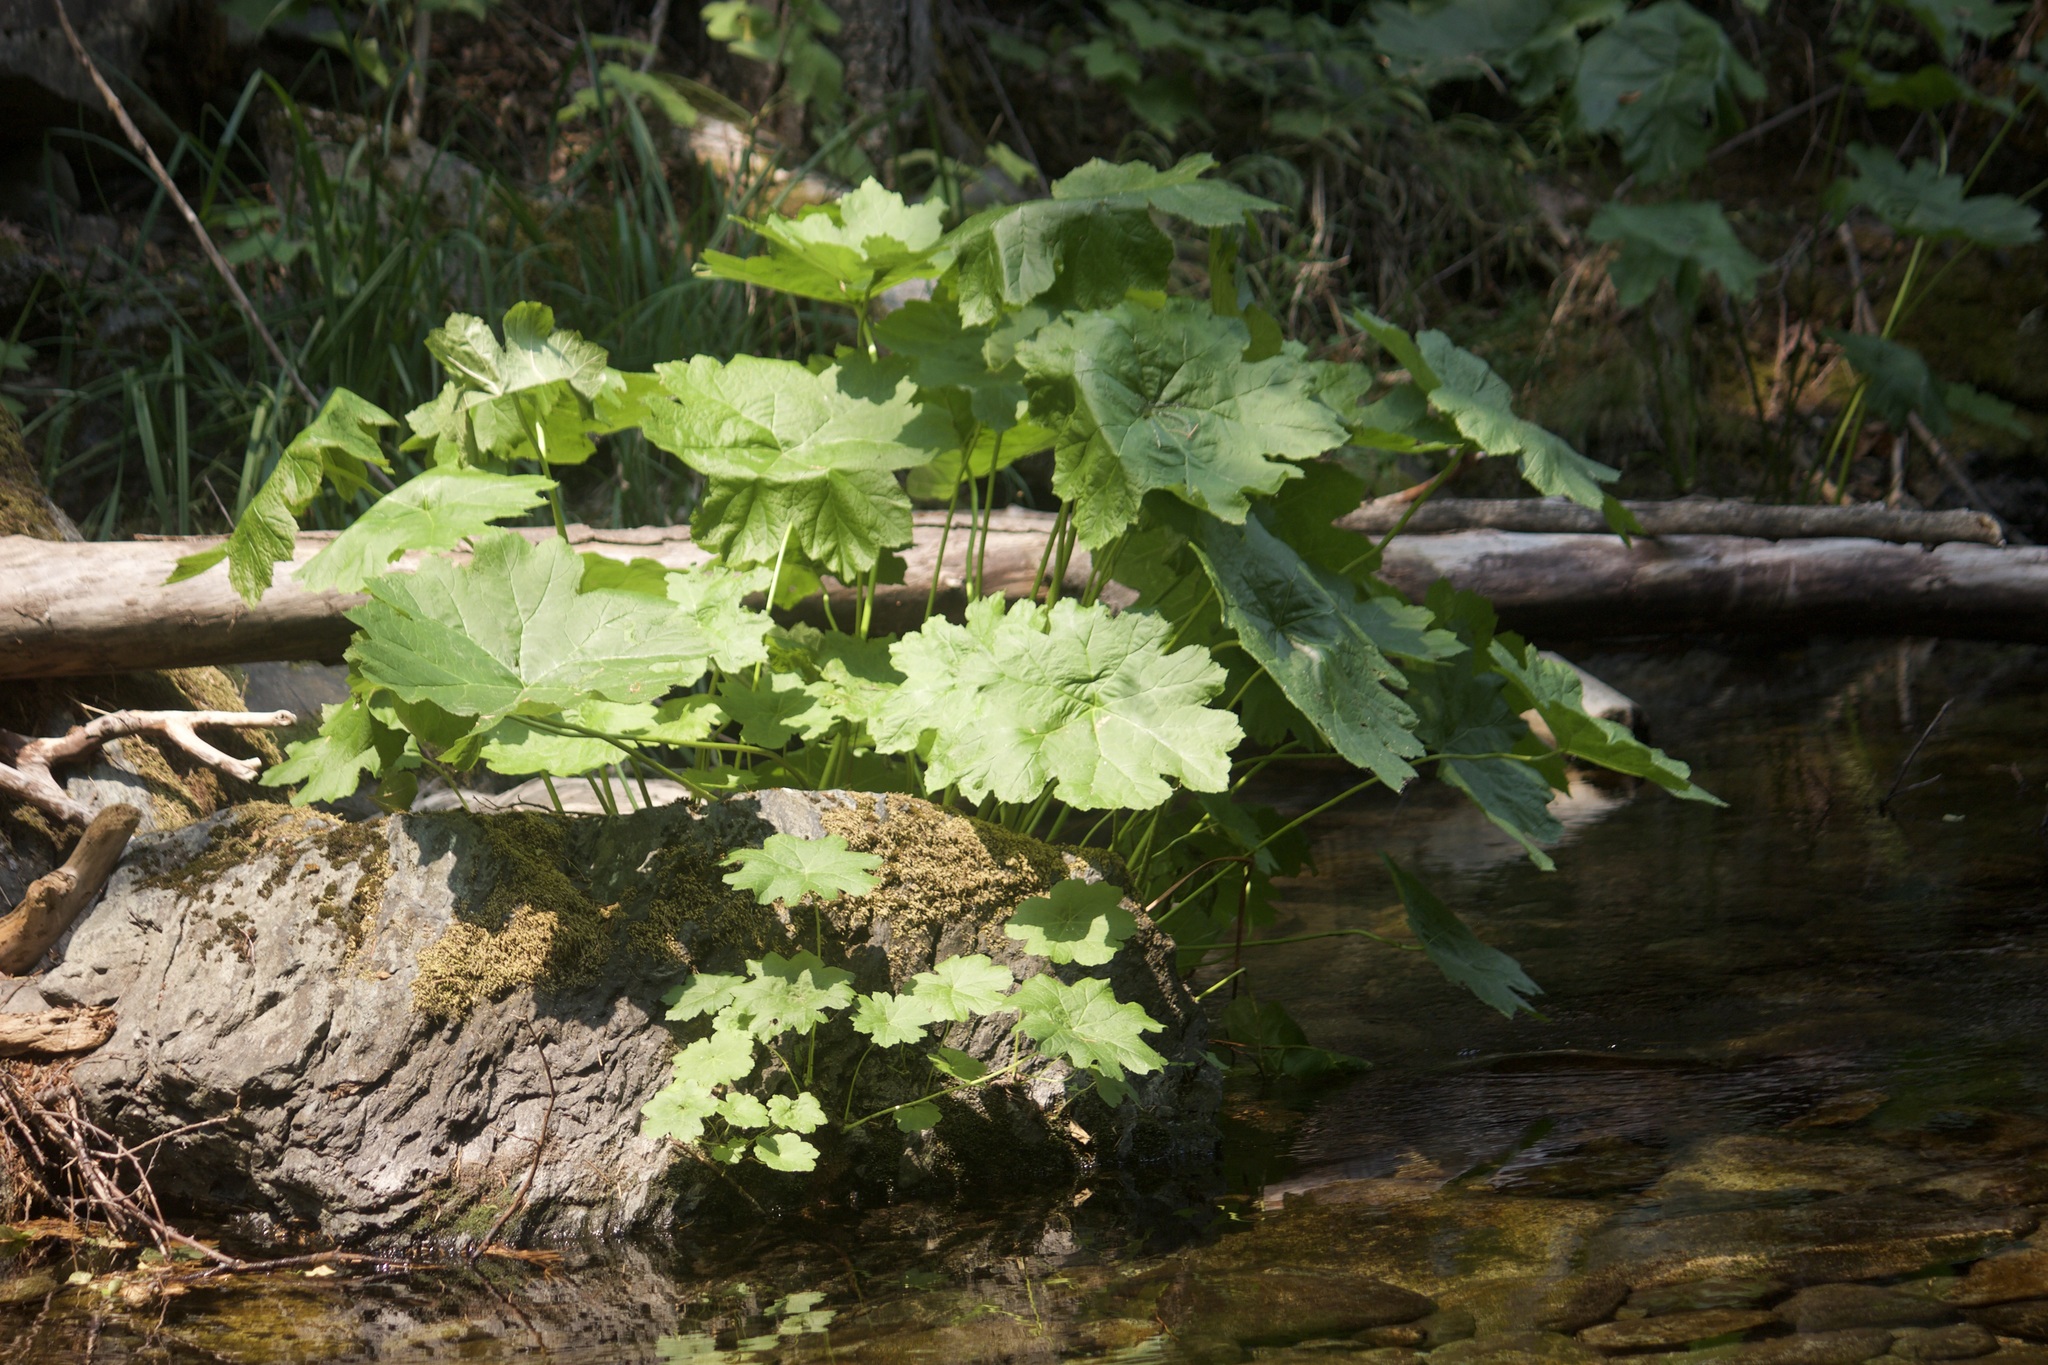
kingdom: Plantae
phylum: Tracheophyta
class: Magnoliopsida
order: Saxifragales
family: Saxifragaceae
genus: Darmera
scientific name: Darmera peltata
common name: Indian-rhubarb
